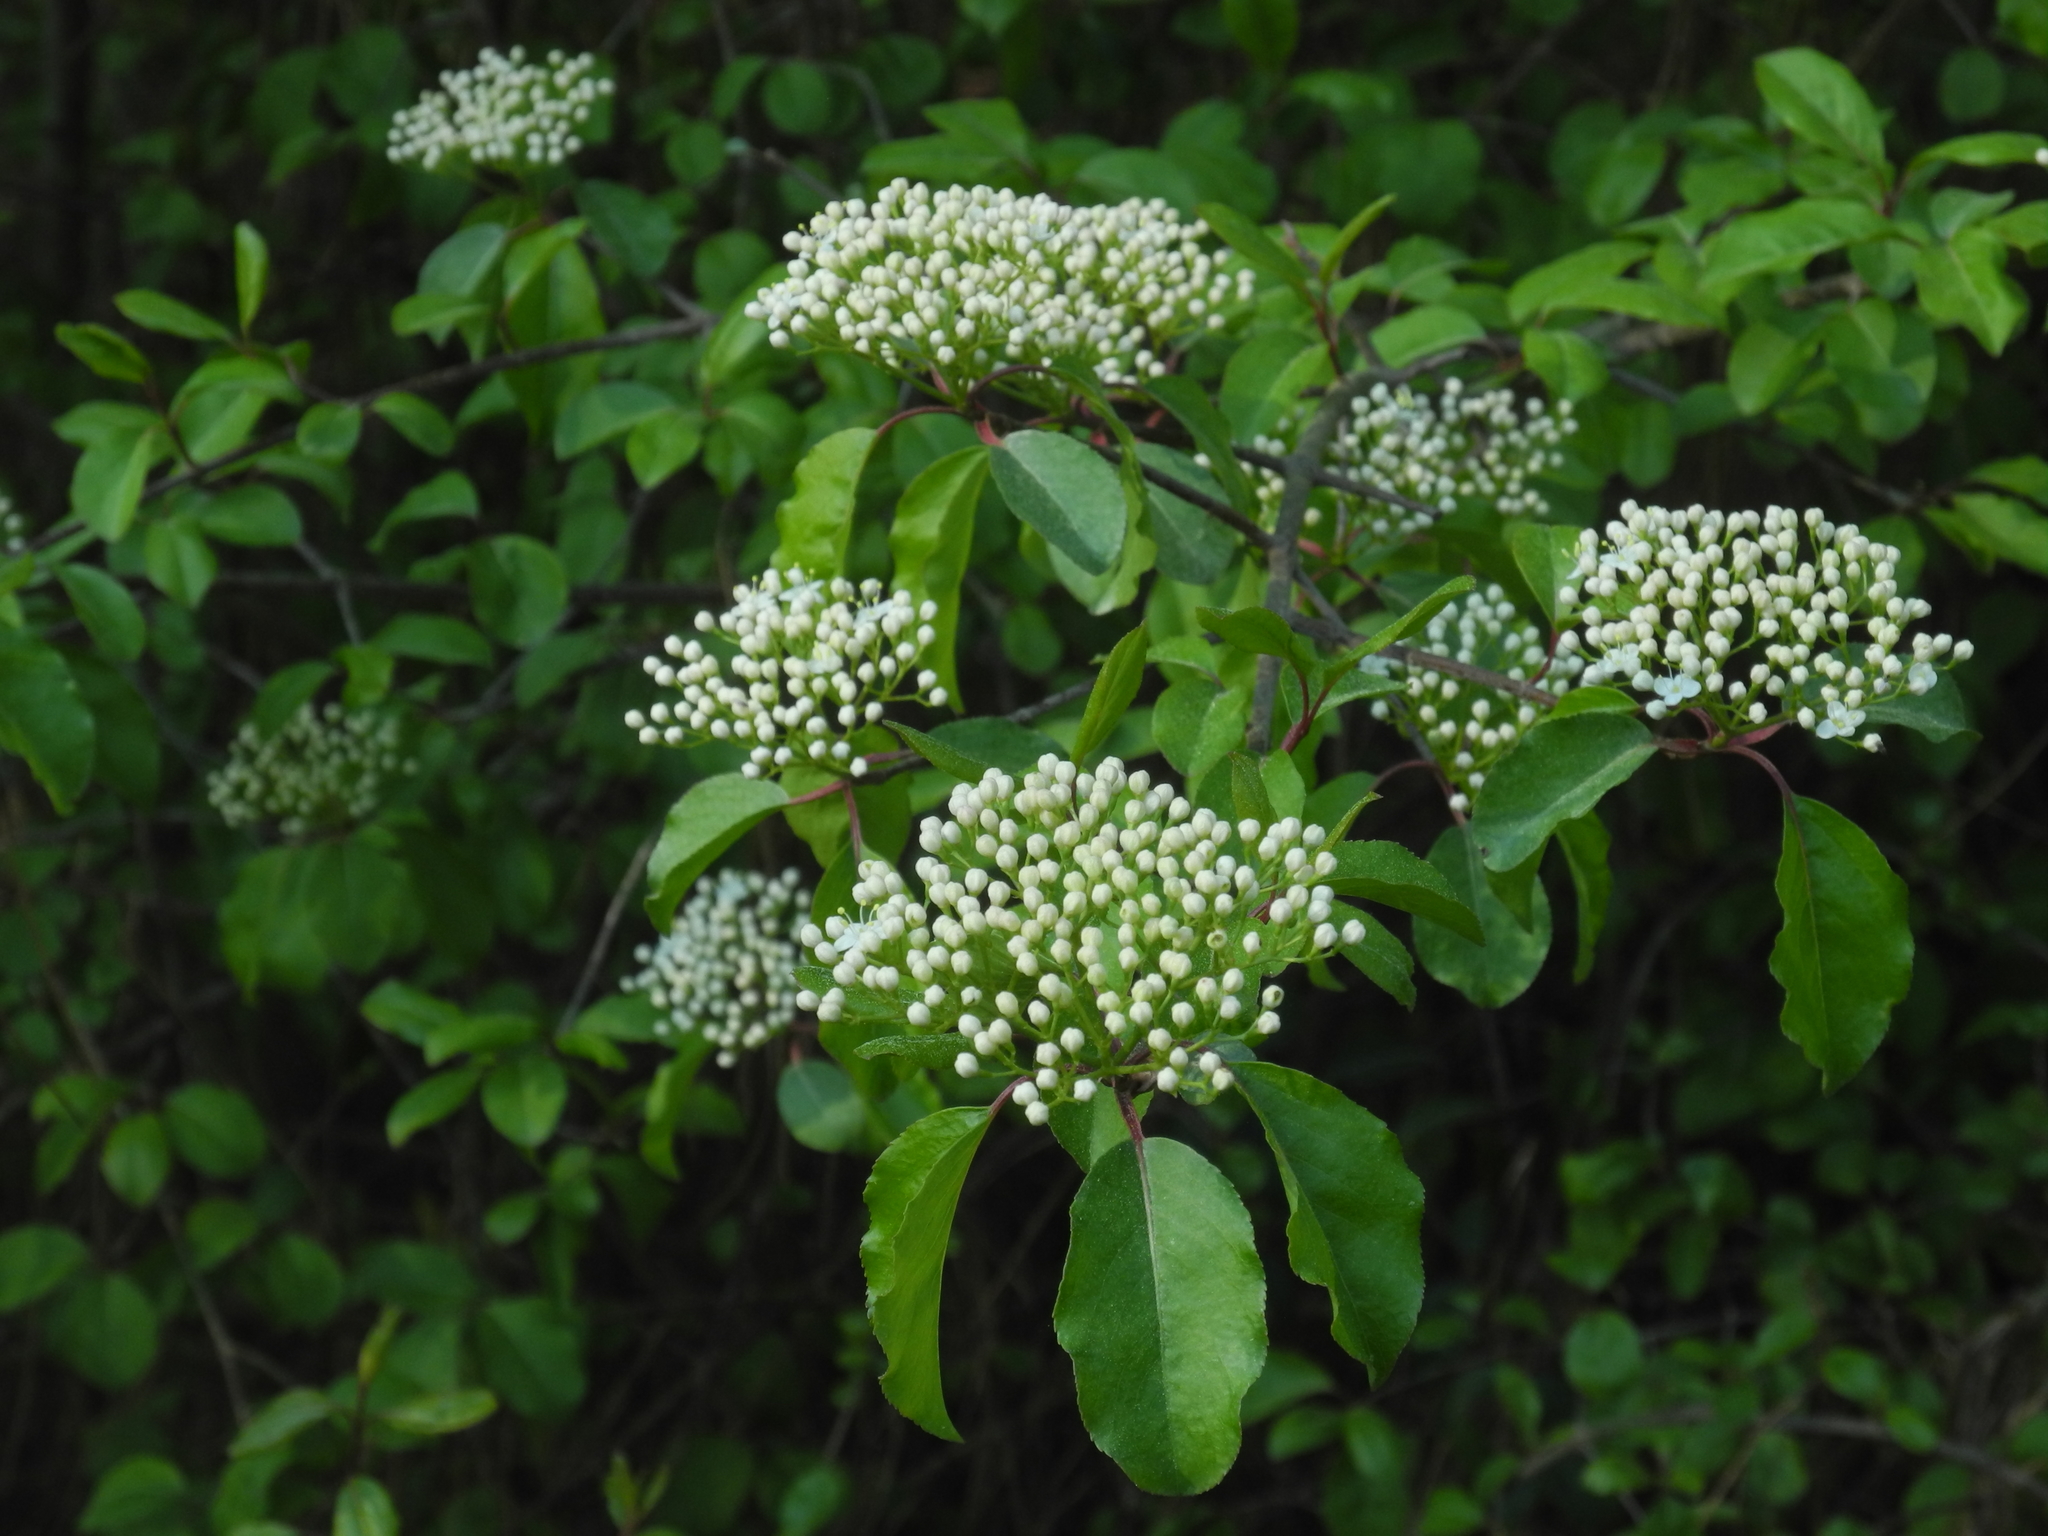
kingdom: Plantae
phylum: Tracheophyta
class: Magnoliopsida
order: Dipsacales
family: Viburnaceae
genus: Viburnum
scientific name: Viburnum prunifolium
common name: Black haw
